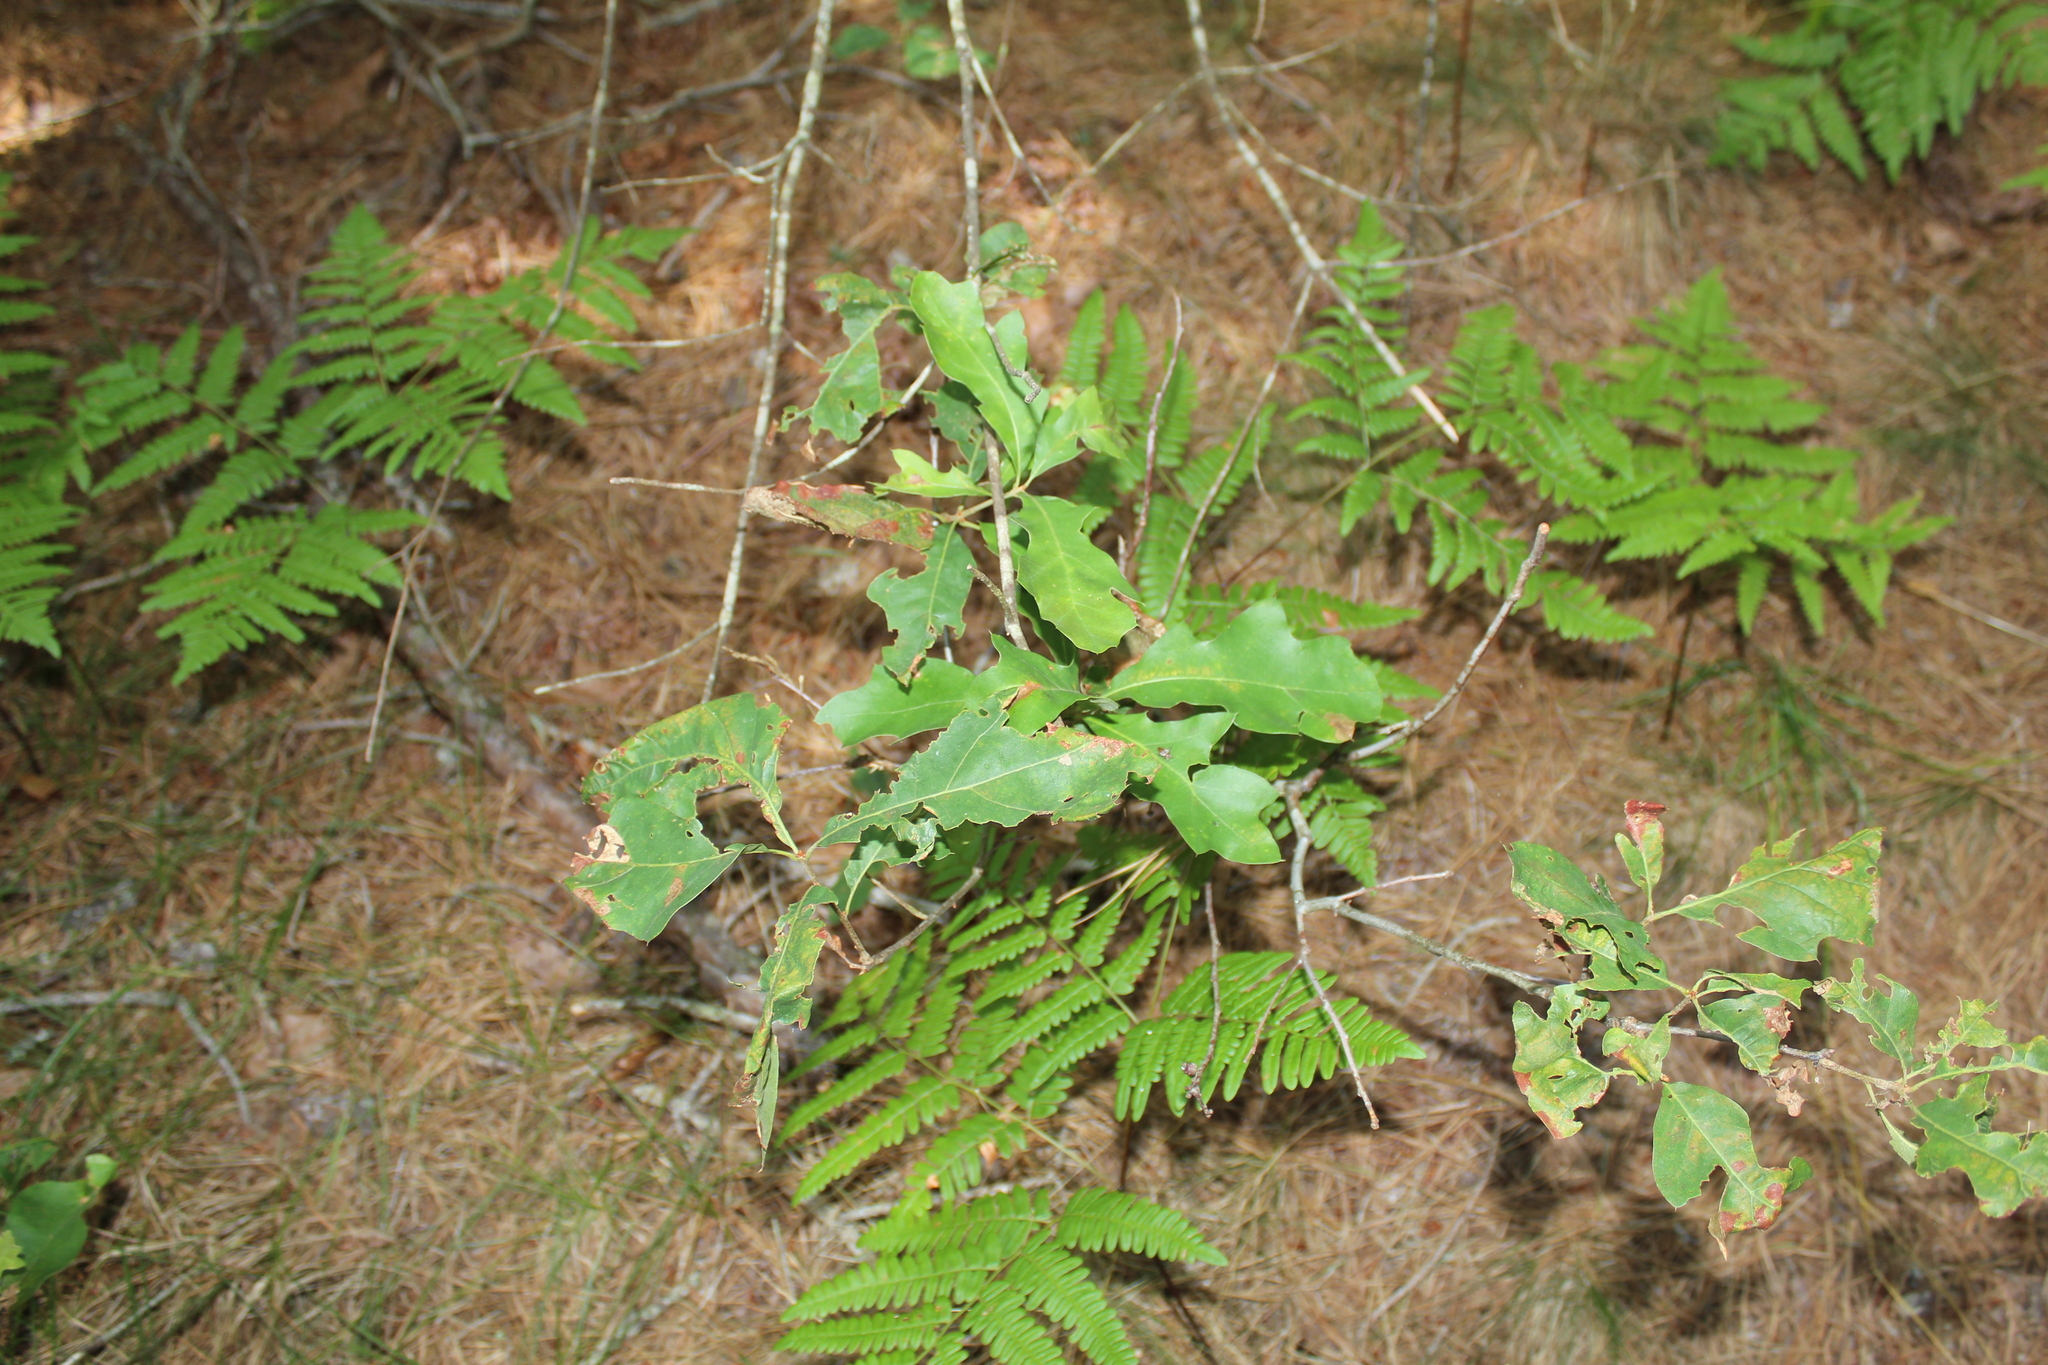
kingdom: Plantae
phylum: Tracheophyta
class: Magnoliopsida
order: Fagales
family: Fagaceae
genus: Quercus
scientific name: Quercus ilicifolia
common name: Bear oak
